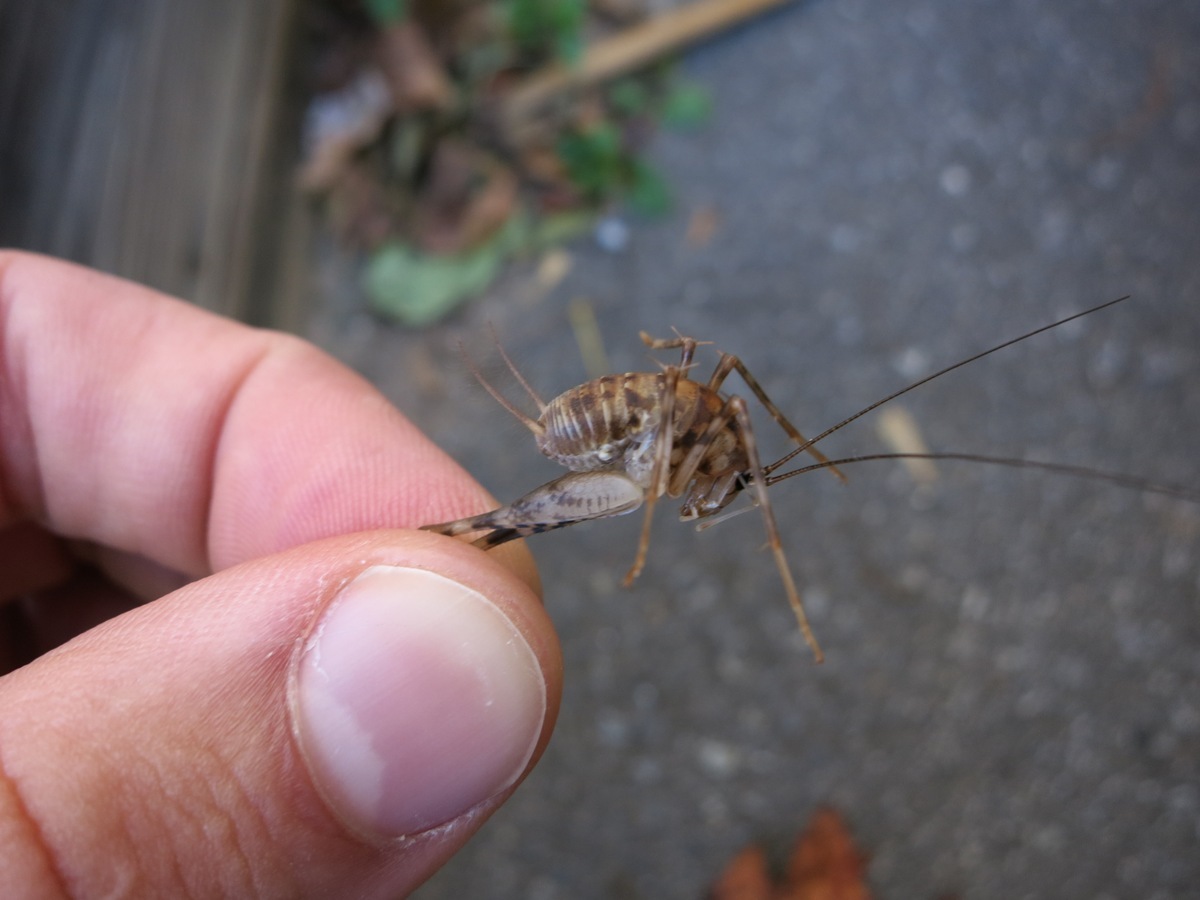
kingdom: Animalia
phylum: Arthropoda
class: Insecta
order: Orthoptera
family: Rhaphidophoridae
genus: Tachycines
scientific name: Tachycines asynamorus
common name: Greenhouse camel cricket
